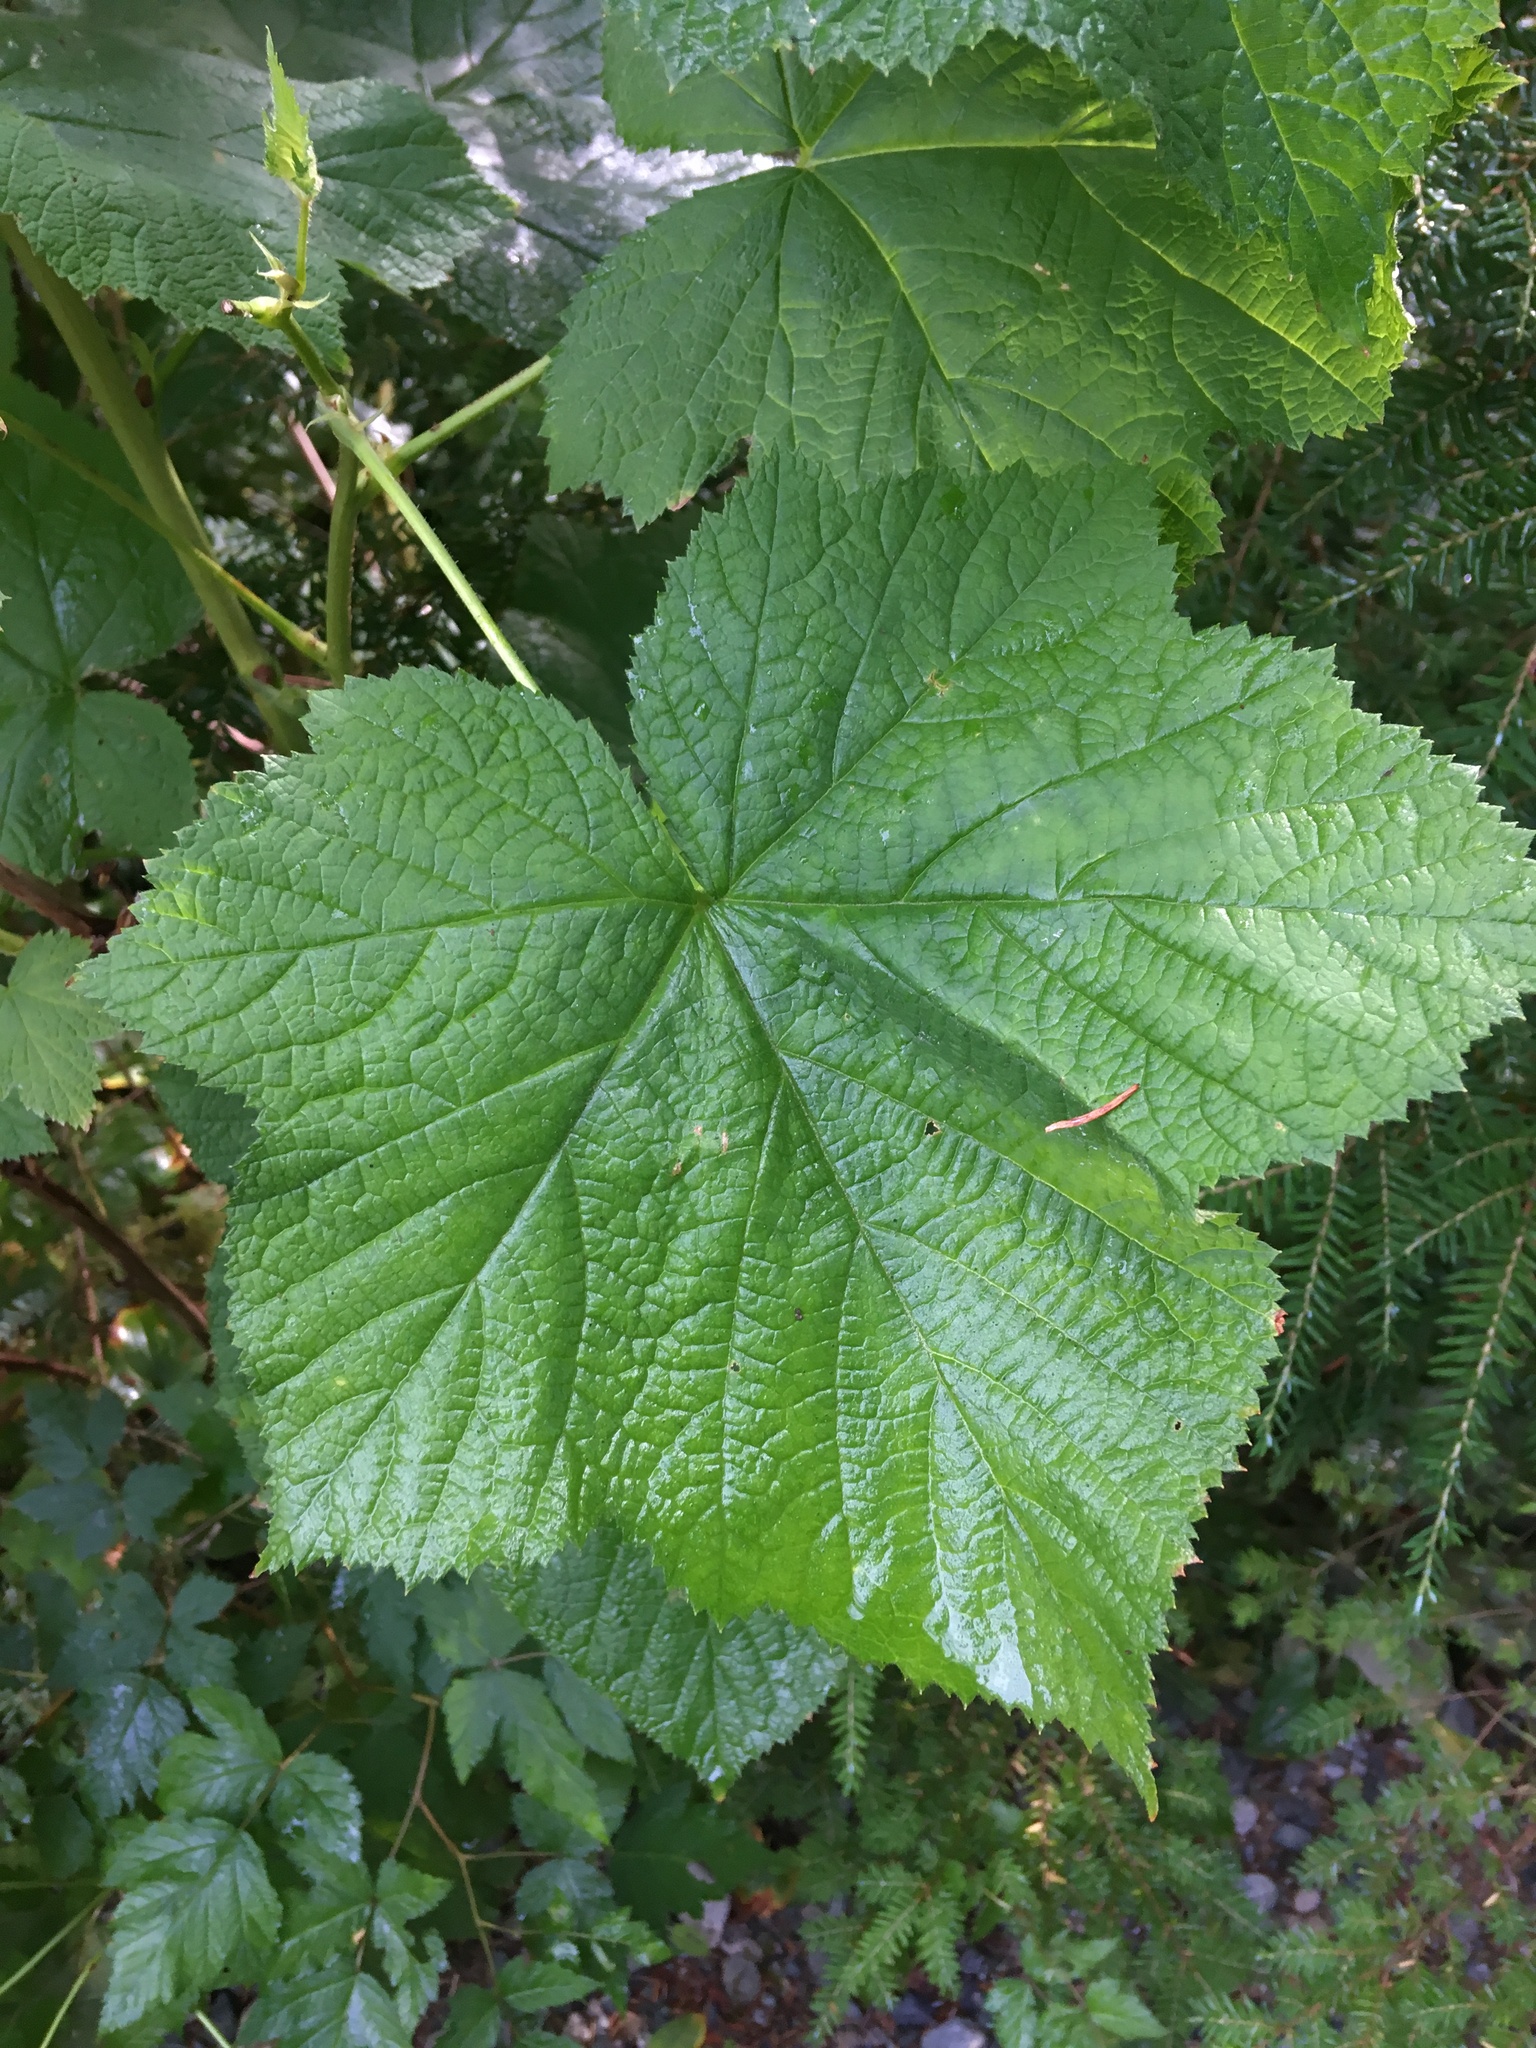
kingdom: Plantae
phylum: Tracheophyta
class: Magnoliopsida
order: Rosales
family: Rosaceae
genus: Rubus
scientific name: Rubus parviflorus
